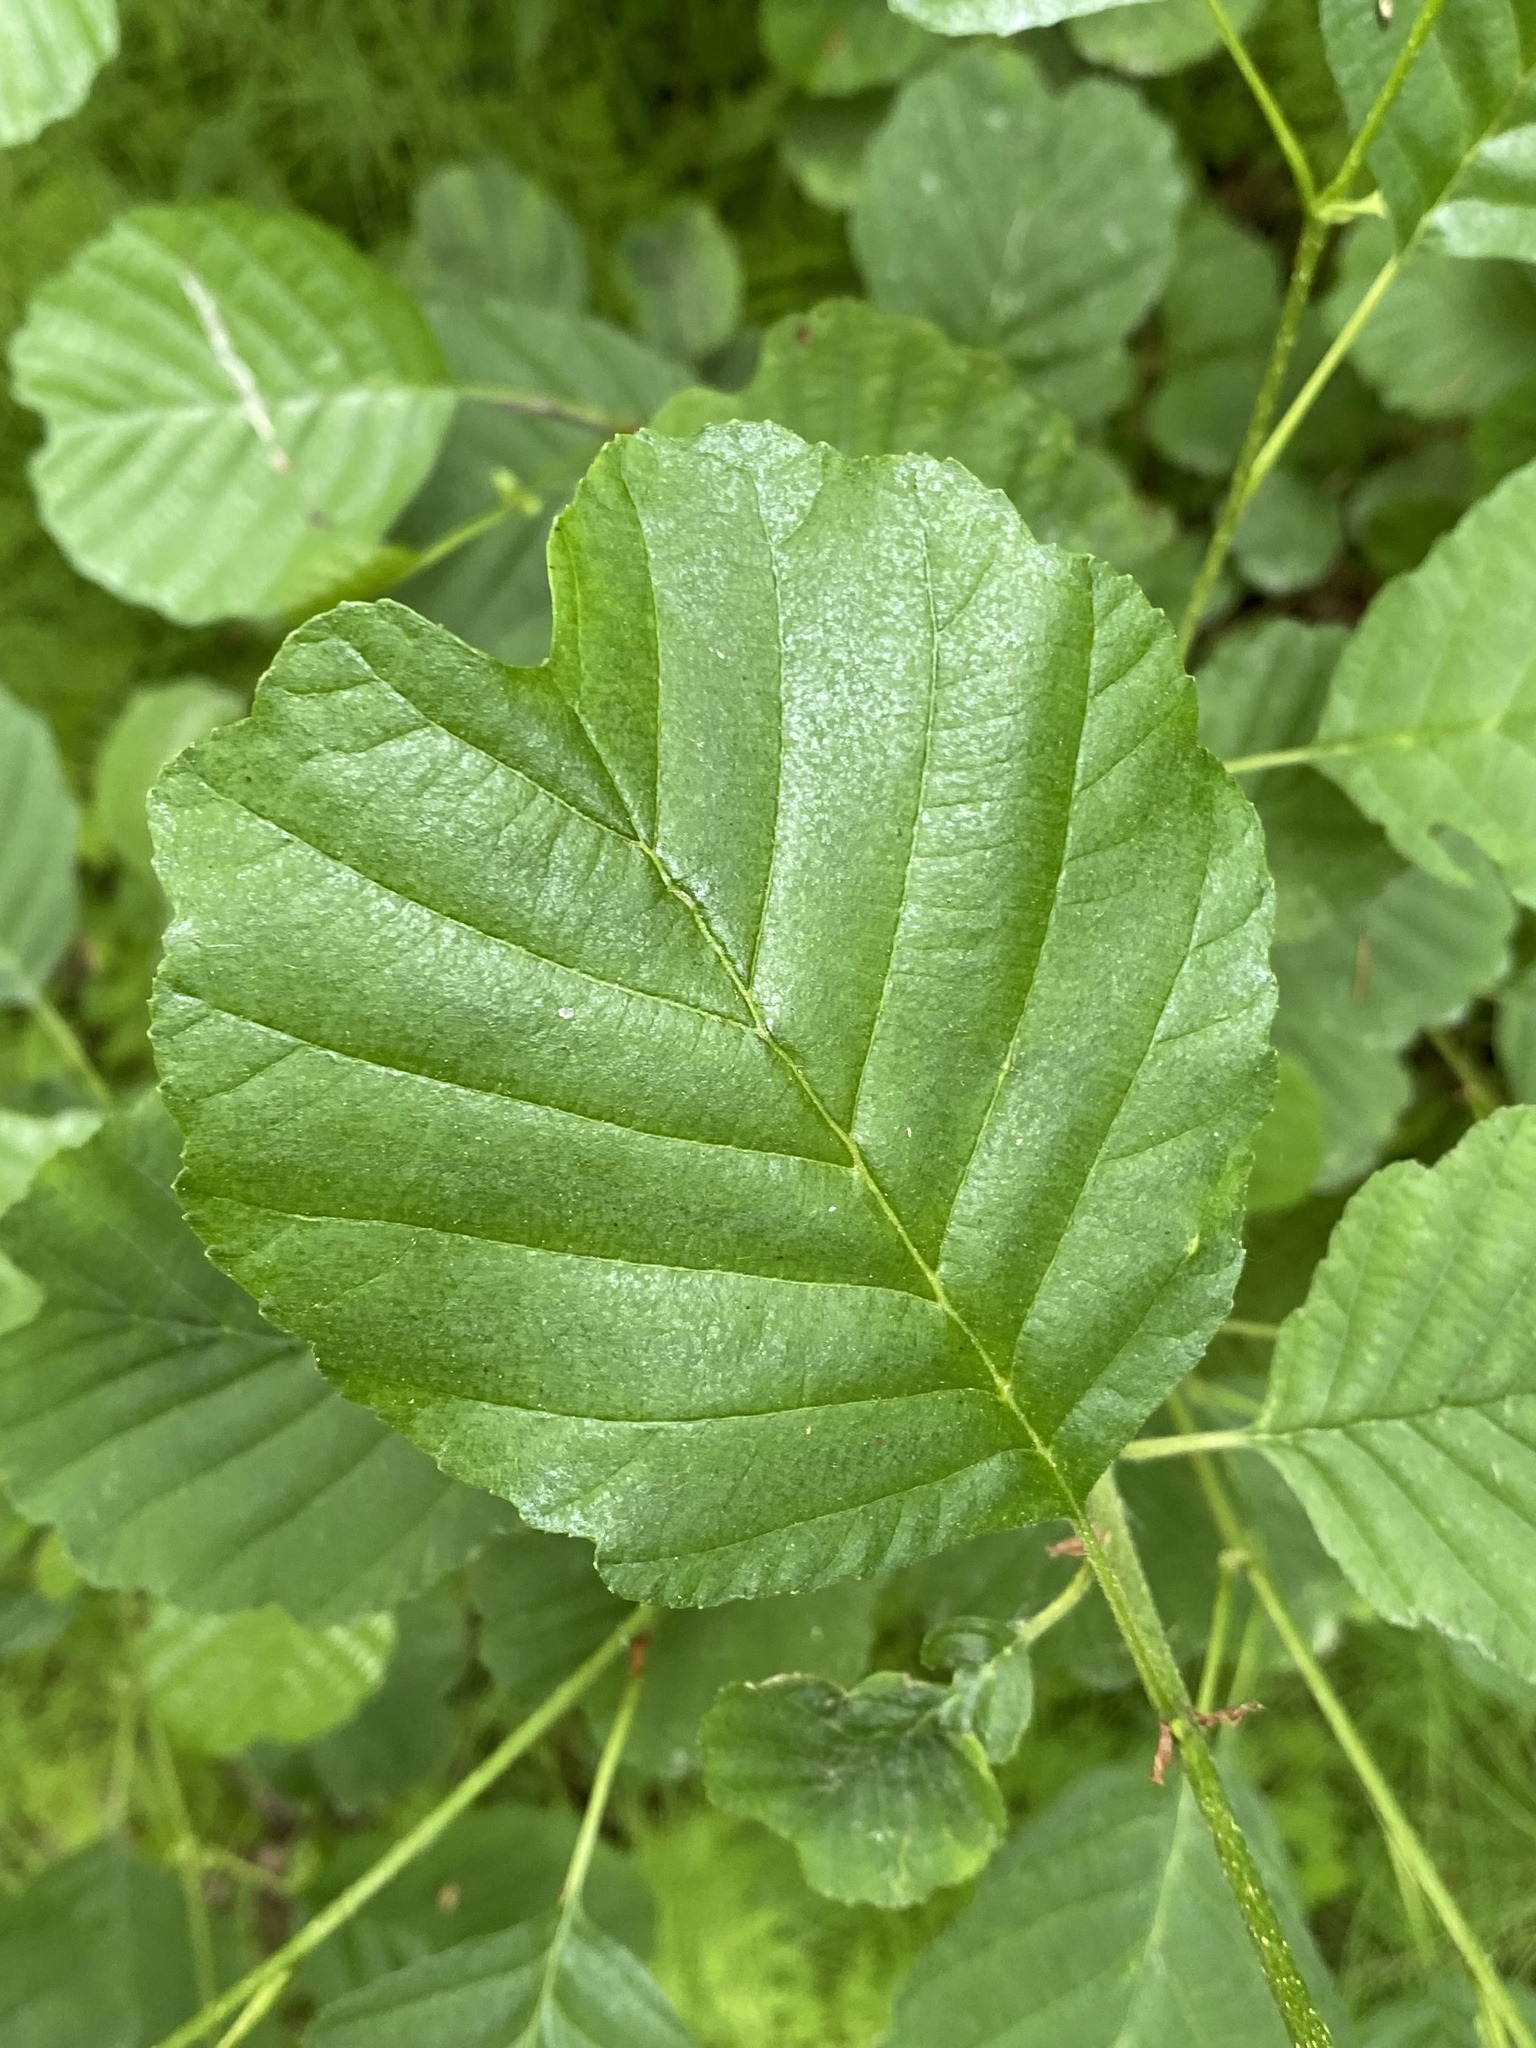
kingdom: Plantae
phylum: Tracheophyta
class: Magnoliopsida
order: Fagales
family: Betulaceae
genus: Alnus
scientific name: Alnus glutinosa
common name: Black alder
